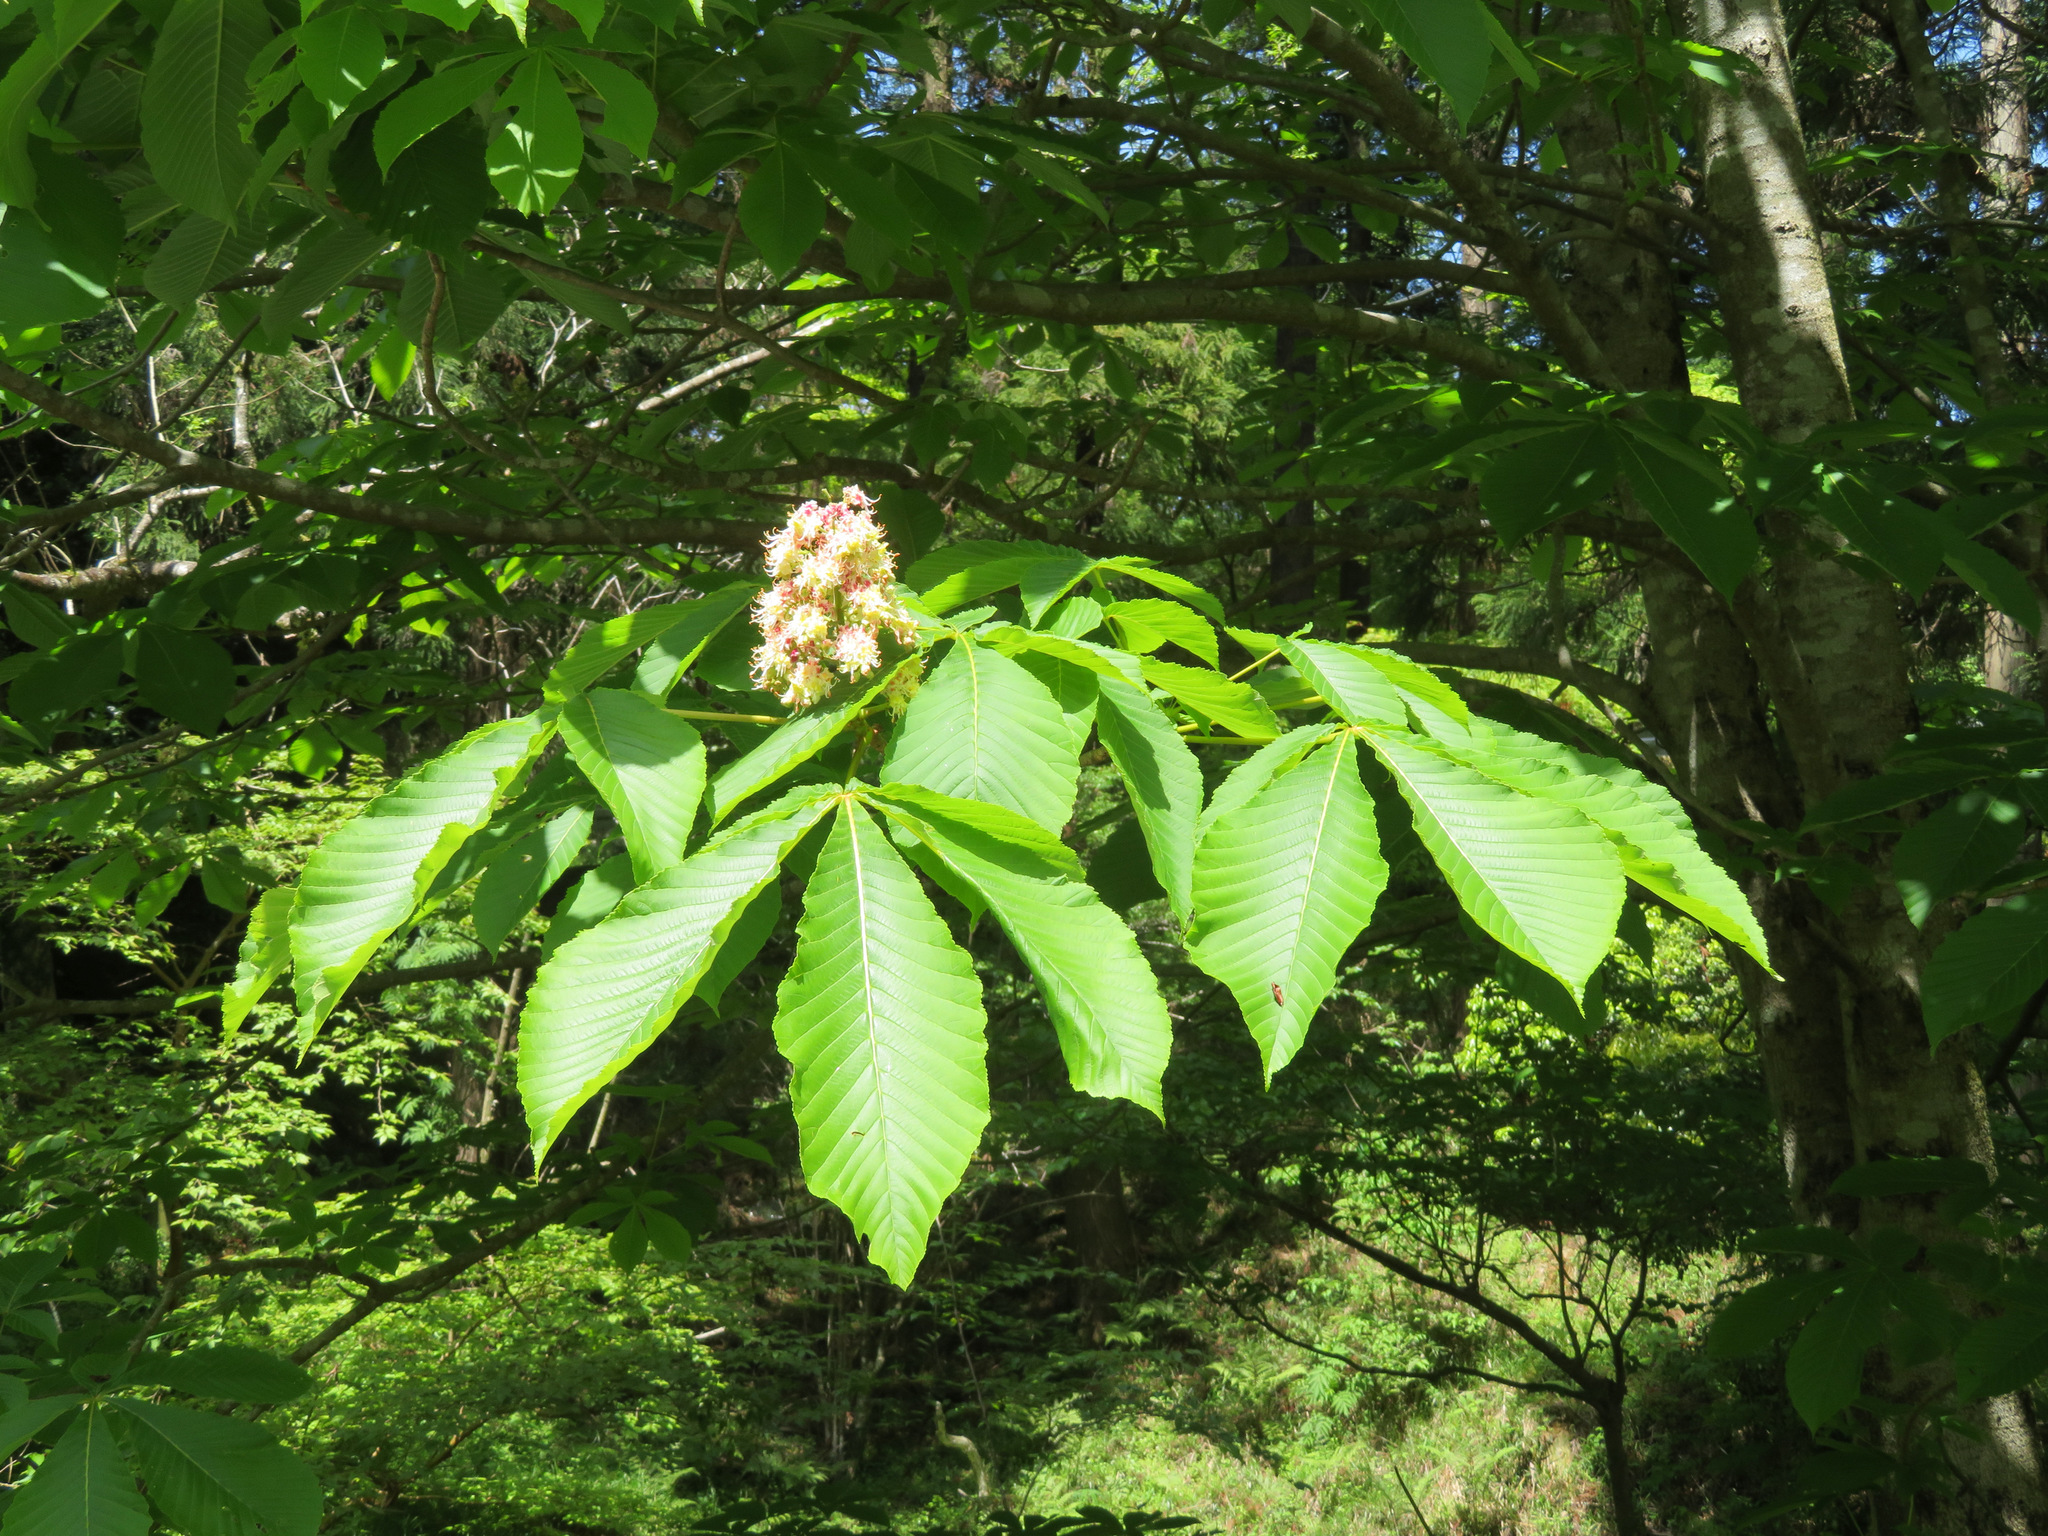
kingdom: Plantae
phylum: Tracheophyta
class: Magnoliopsida
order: Sapindales
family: Sapindaceae
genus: Aesculus
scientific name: Aesculus turbinata
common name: Japanese horse-chestnut
